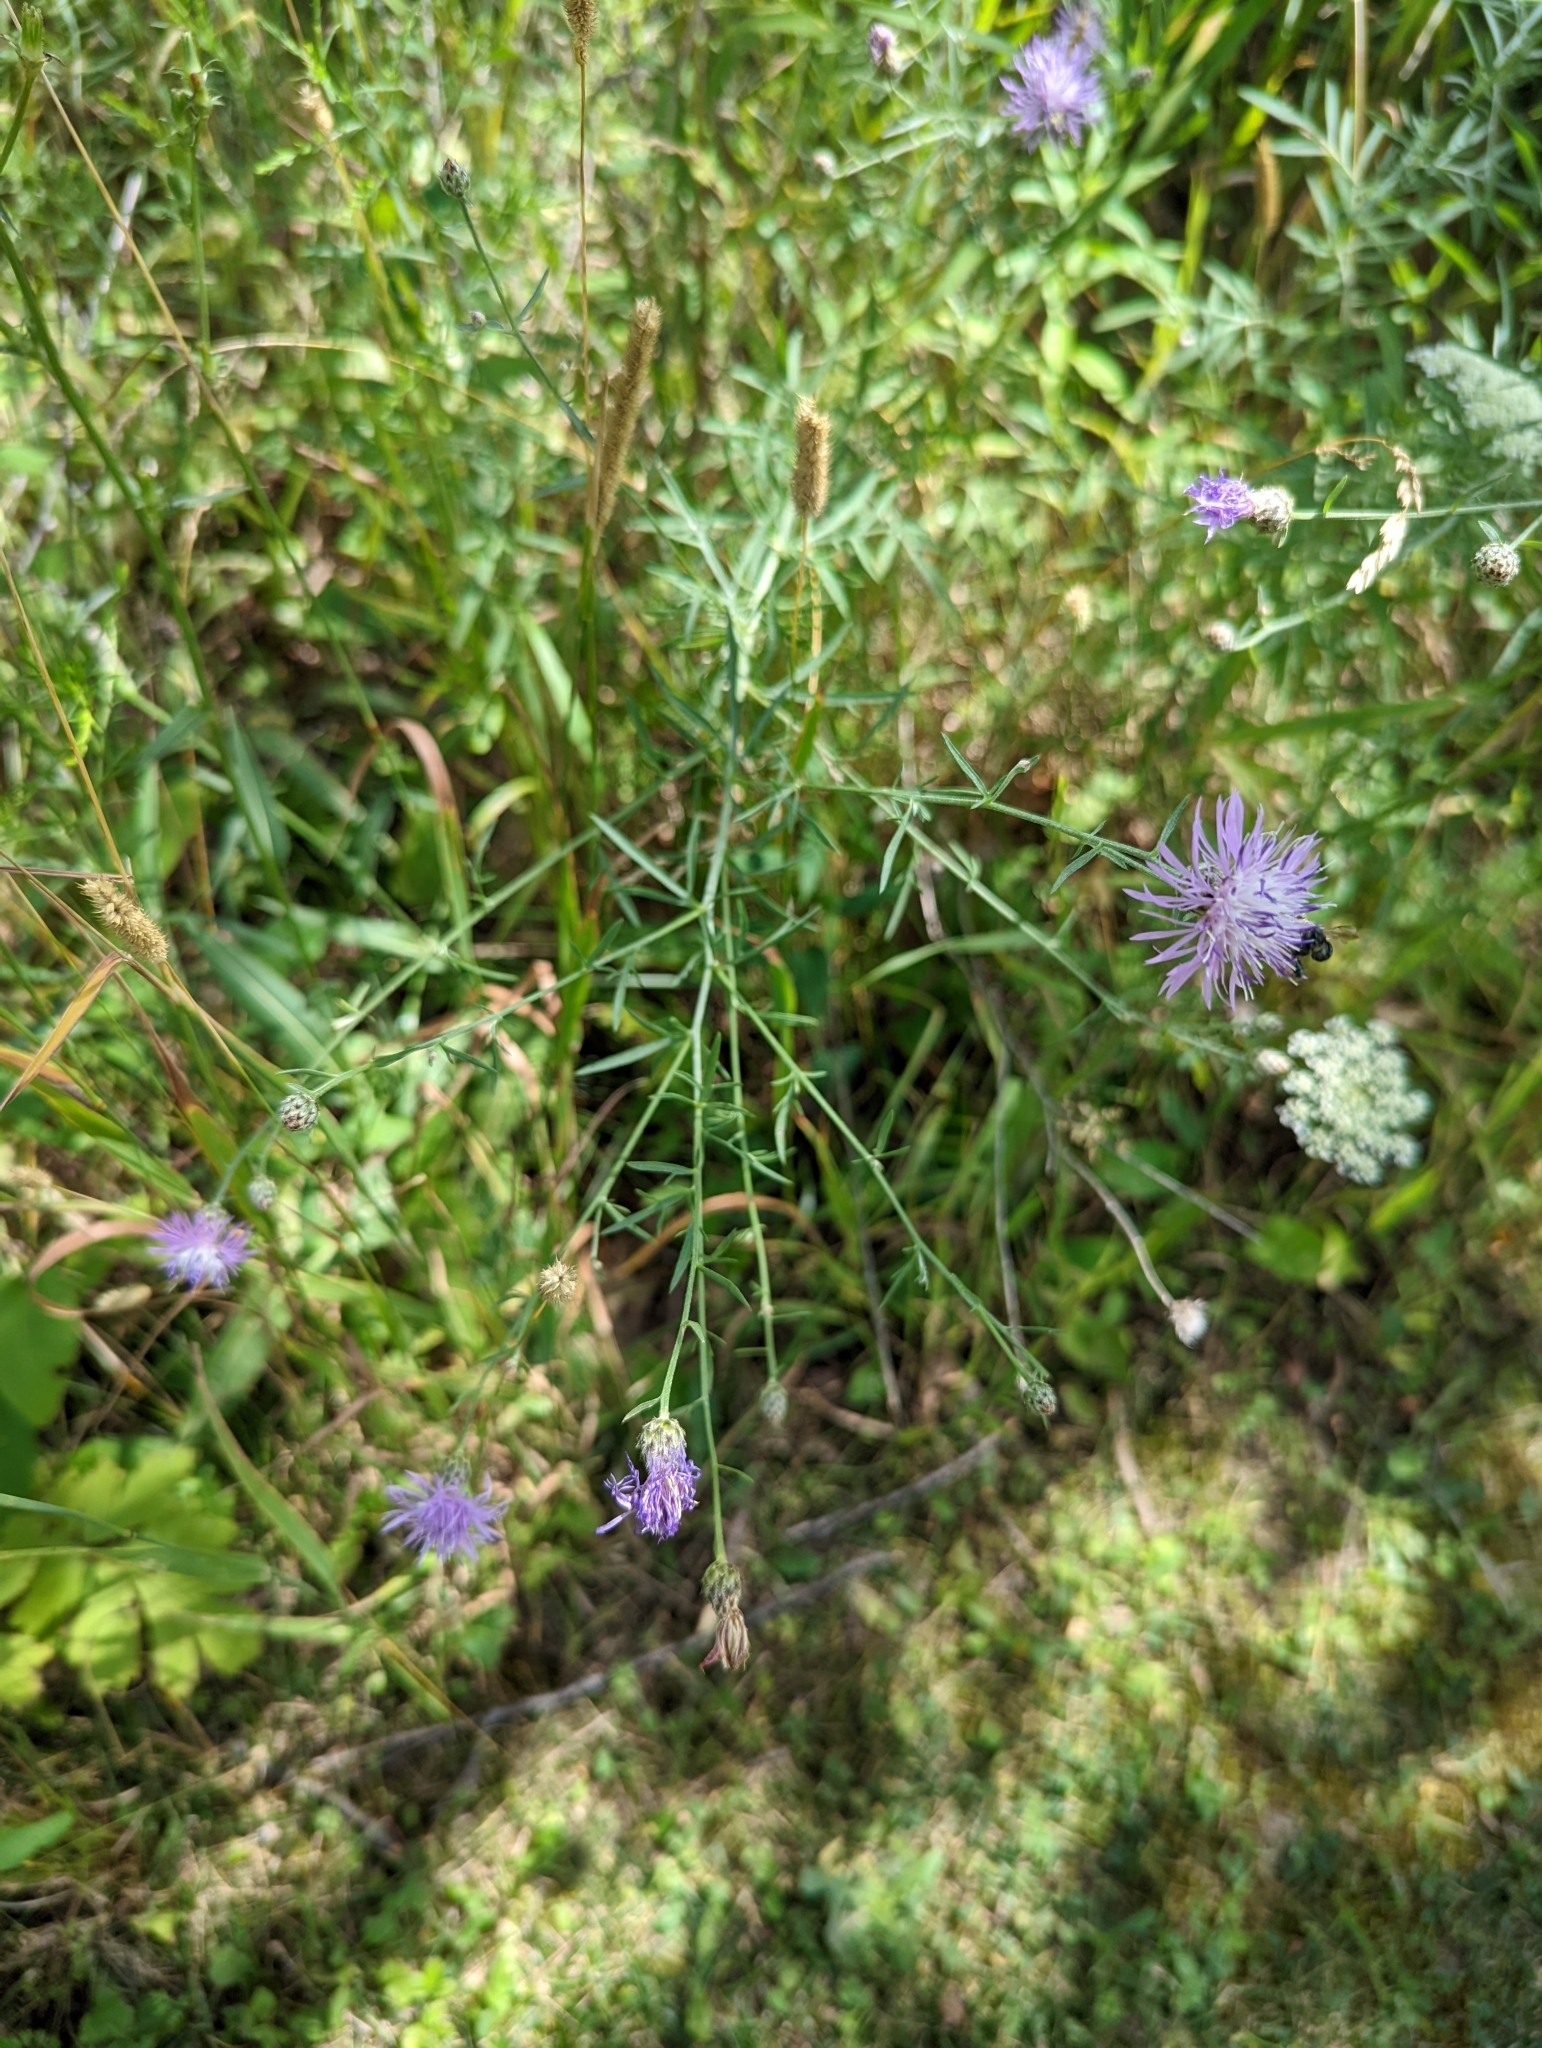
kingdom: Plantae
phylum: Tracheophyta
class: Magnoliopsida
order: Asterales
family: Asteraceae
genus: Centaurea
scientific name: Centaurea stoebe
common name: Spotted knapweed
